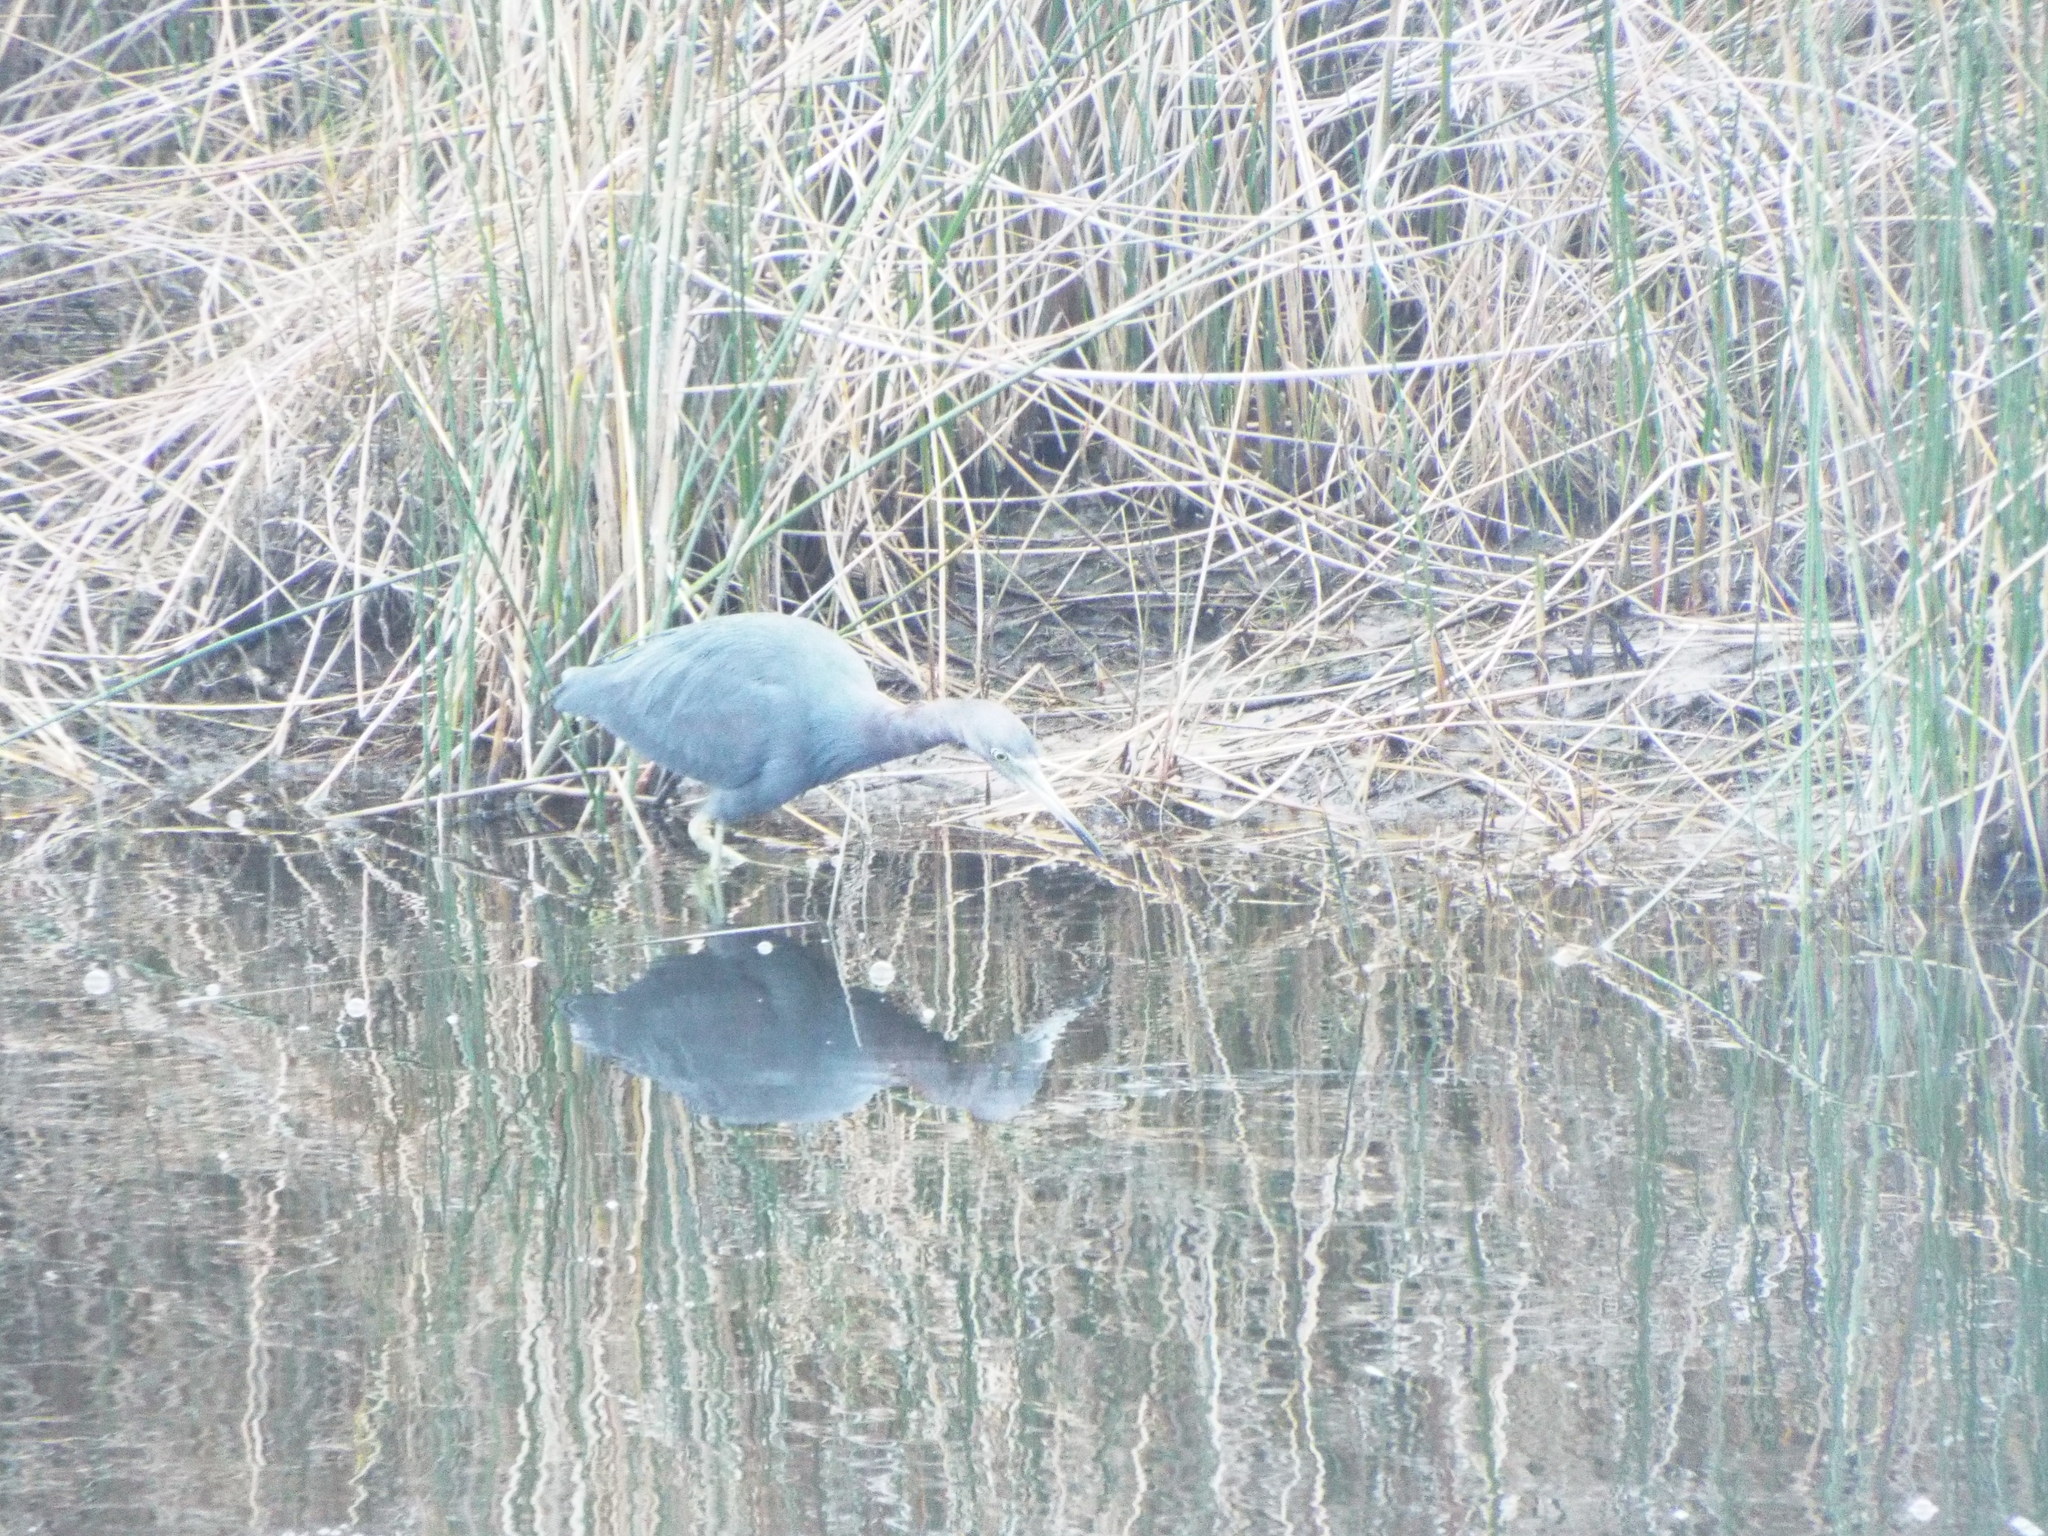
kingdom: Animalia
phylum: Chordata
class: Aves
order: Pelecaniformes
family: Ardeidae
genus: Egretta
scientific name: Egretta caerulea
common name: Little blue heron
